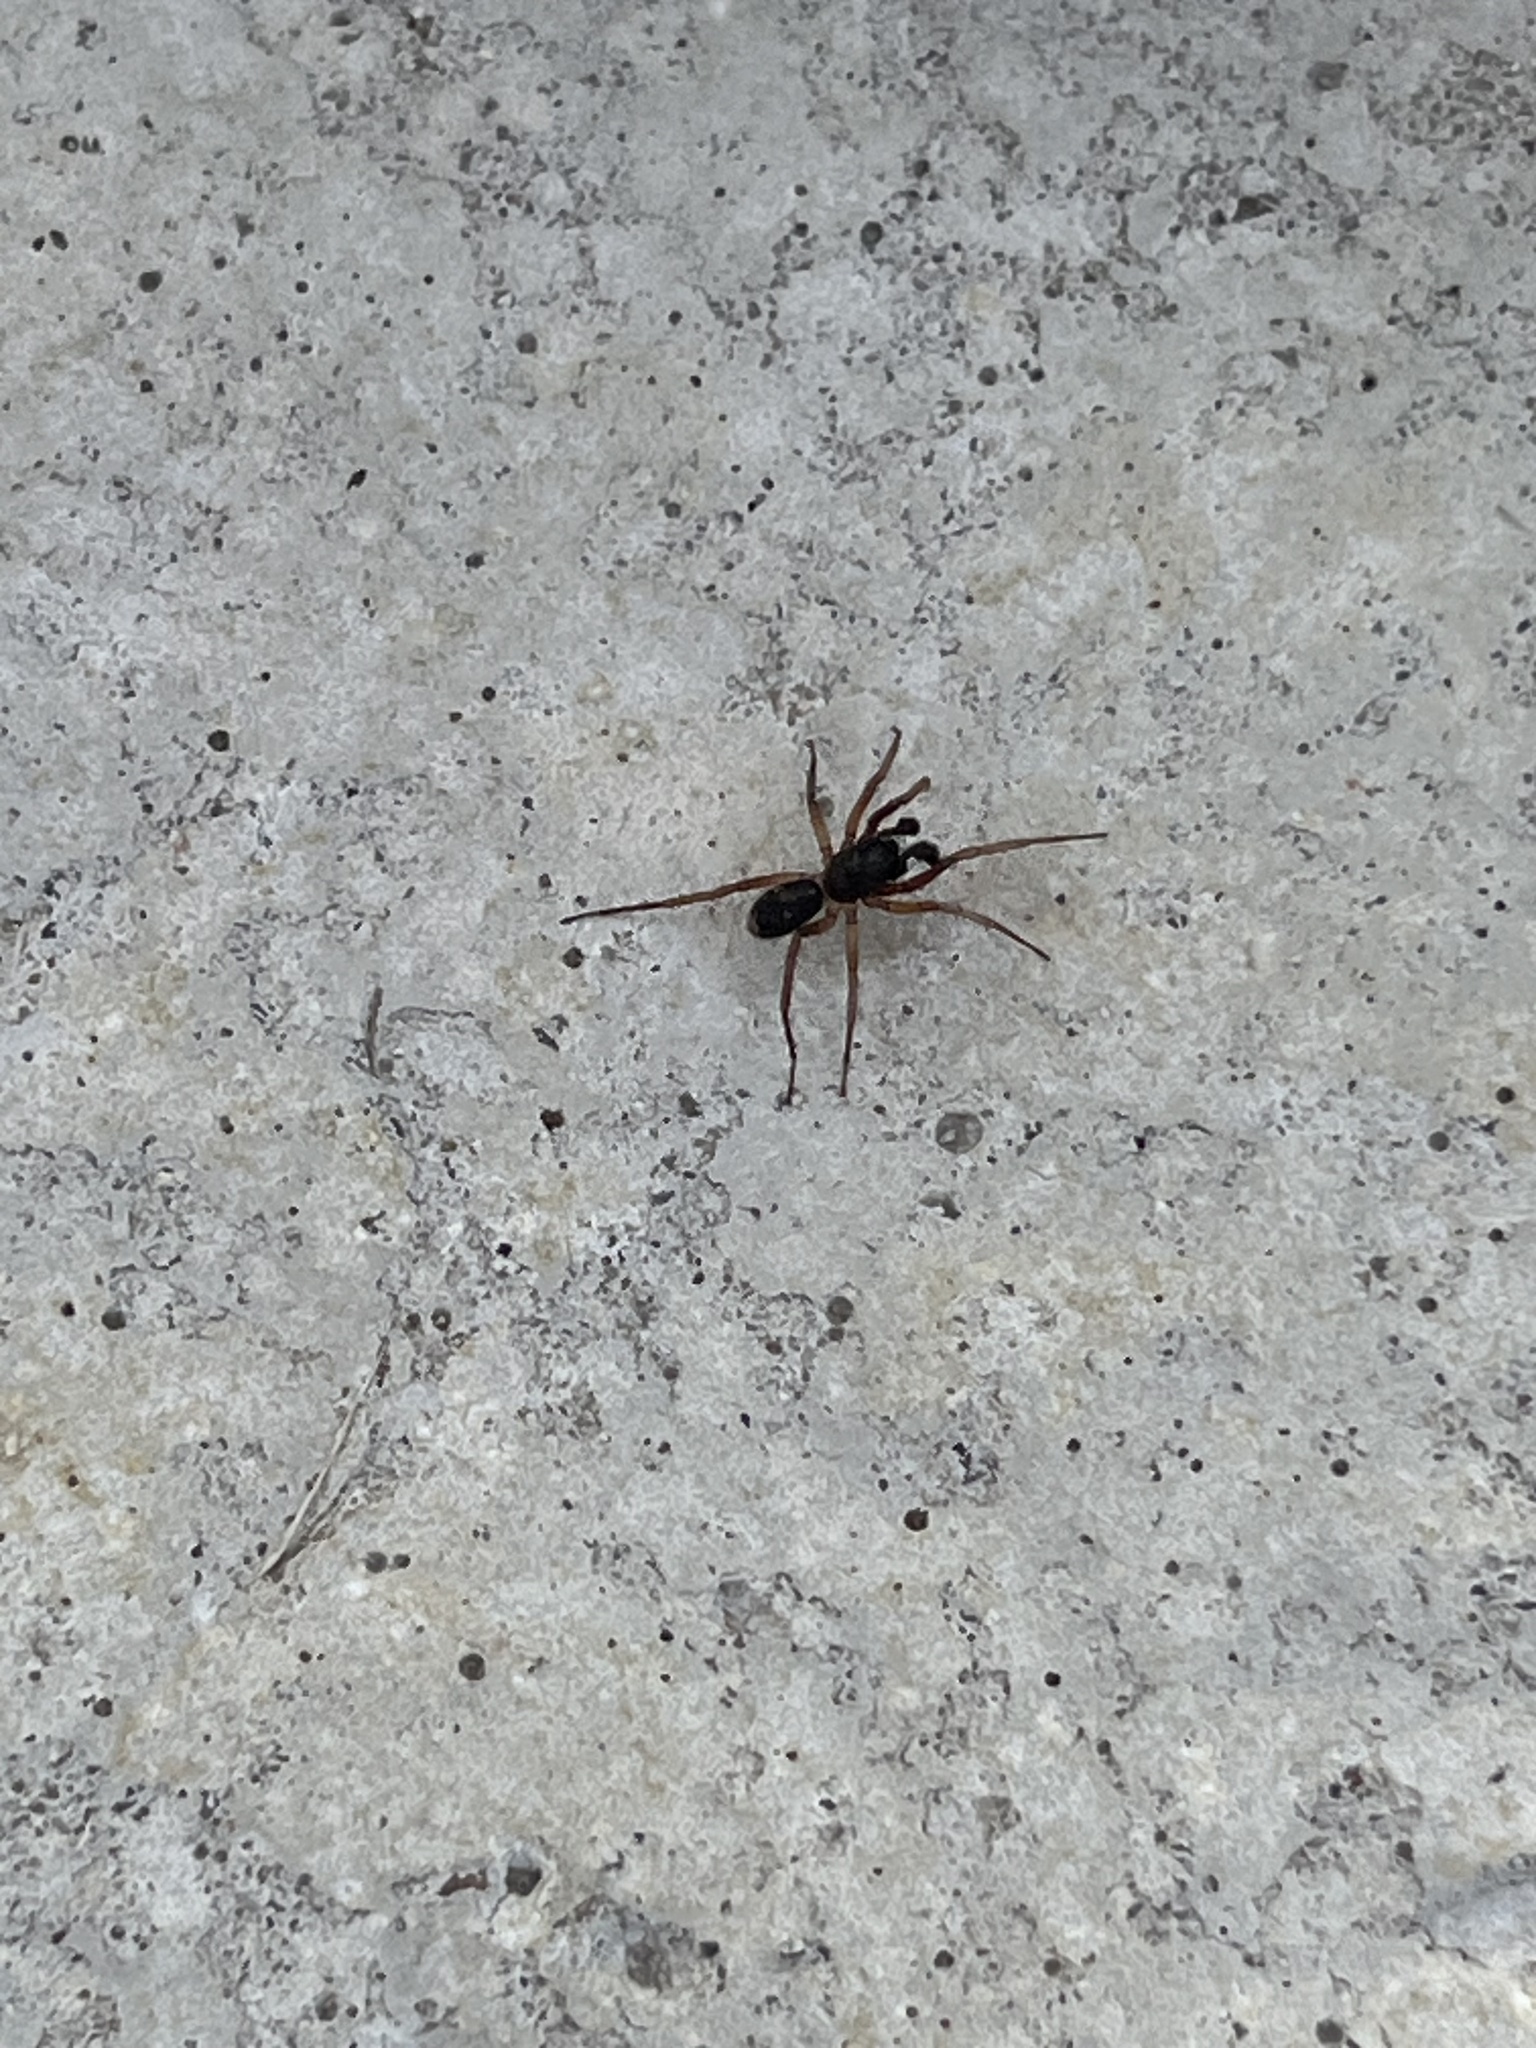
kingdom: Animalia
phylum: Arthropoda
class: Arachnida
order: Araneae
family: Corinnidae
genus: Falconina
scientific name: Falconina gracilis
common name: Antmimic spider
